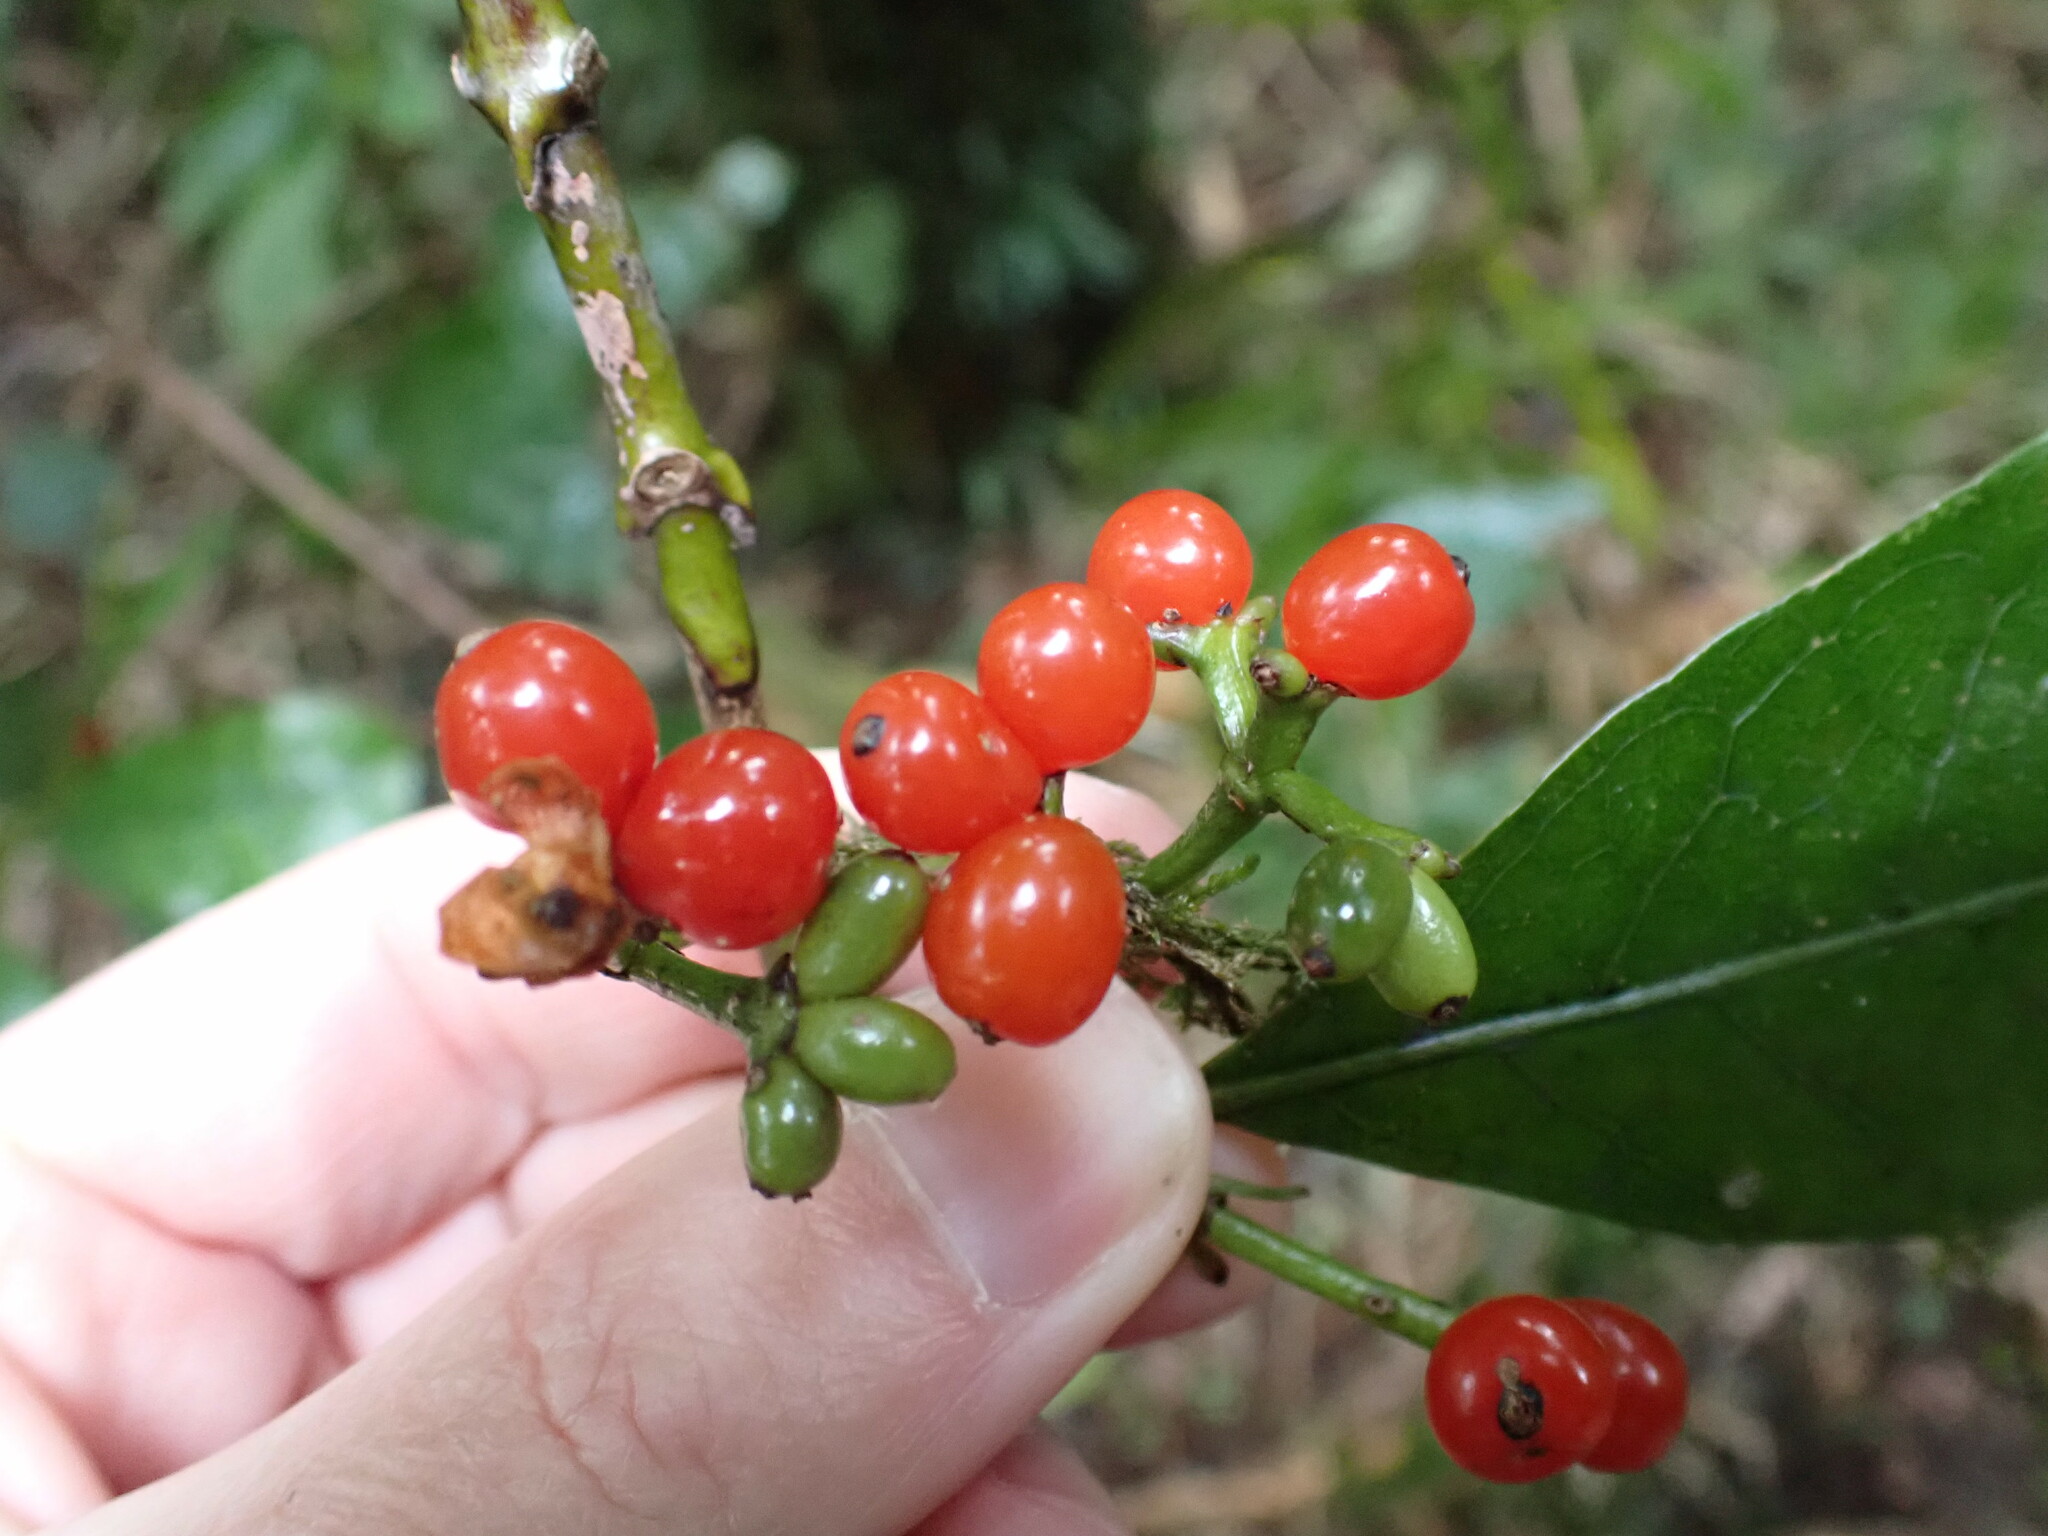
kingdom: Plantae
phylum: Tracheophyta
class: Magnoliopsida
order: Gentianales
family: Rubiaceae
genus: Coprosma
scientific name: Coprosma autumnalis
